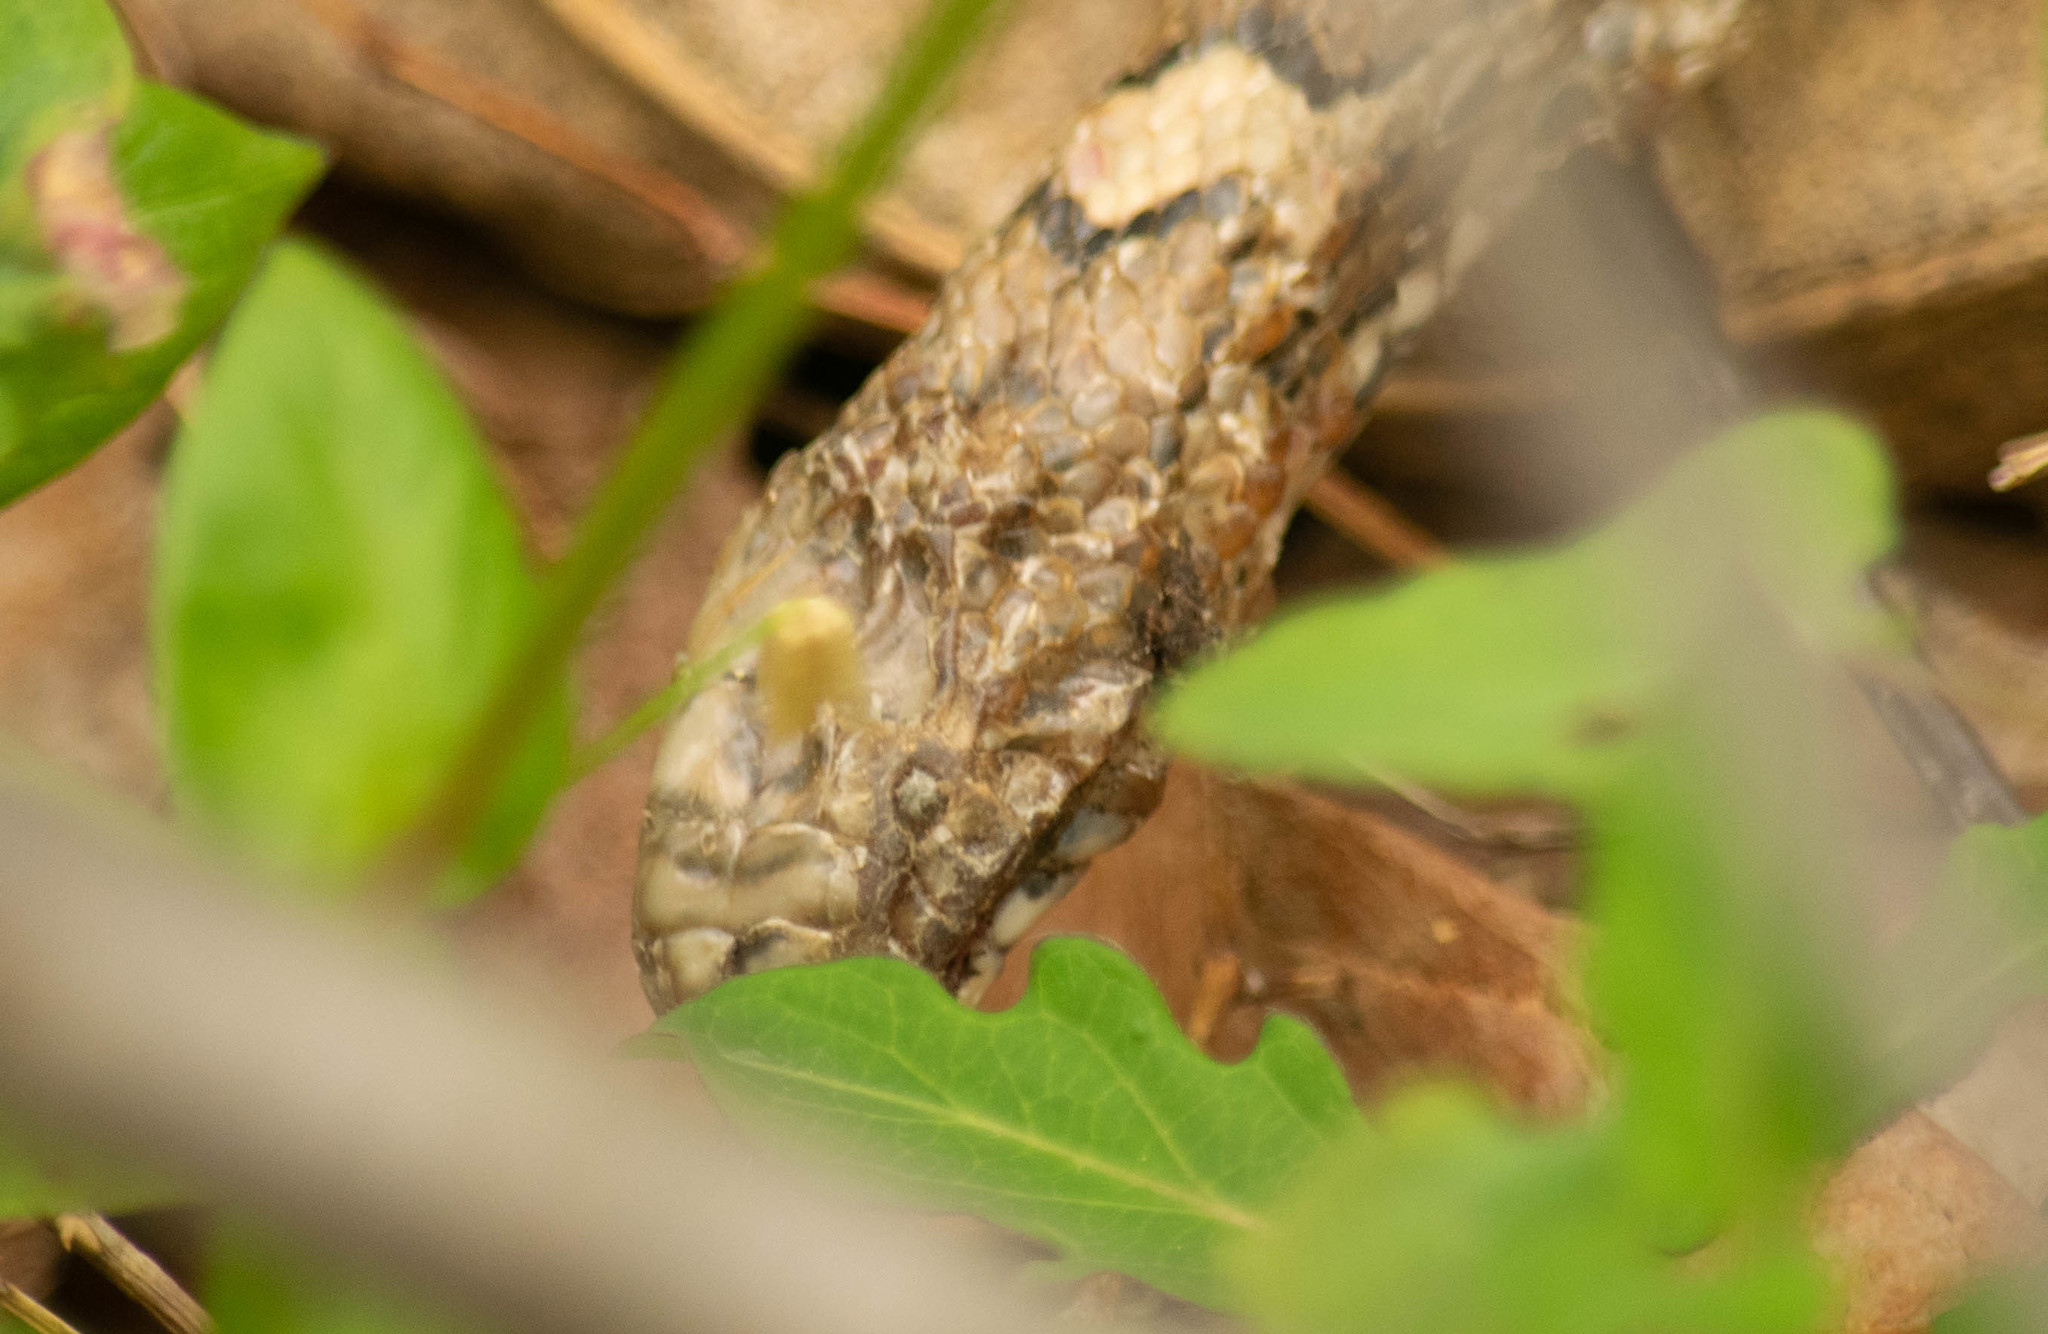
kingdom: Animalia
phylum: Chordata
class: Squamata
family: Colubridae
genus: Lampropeltis
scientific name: Lampropeltis triangulum
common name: Eastern milksnake
